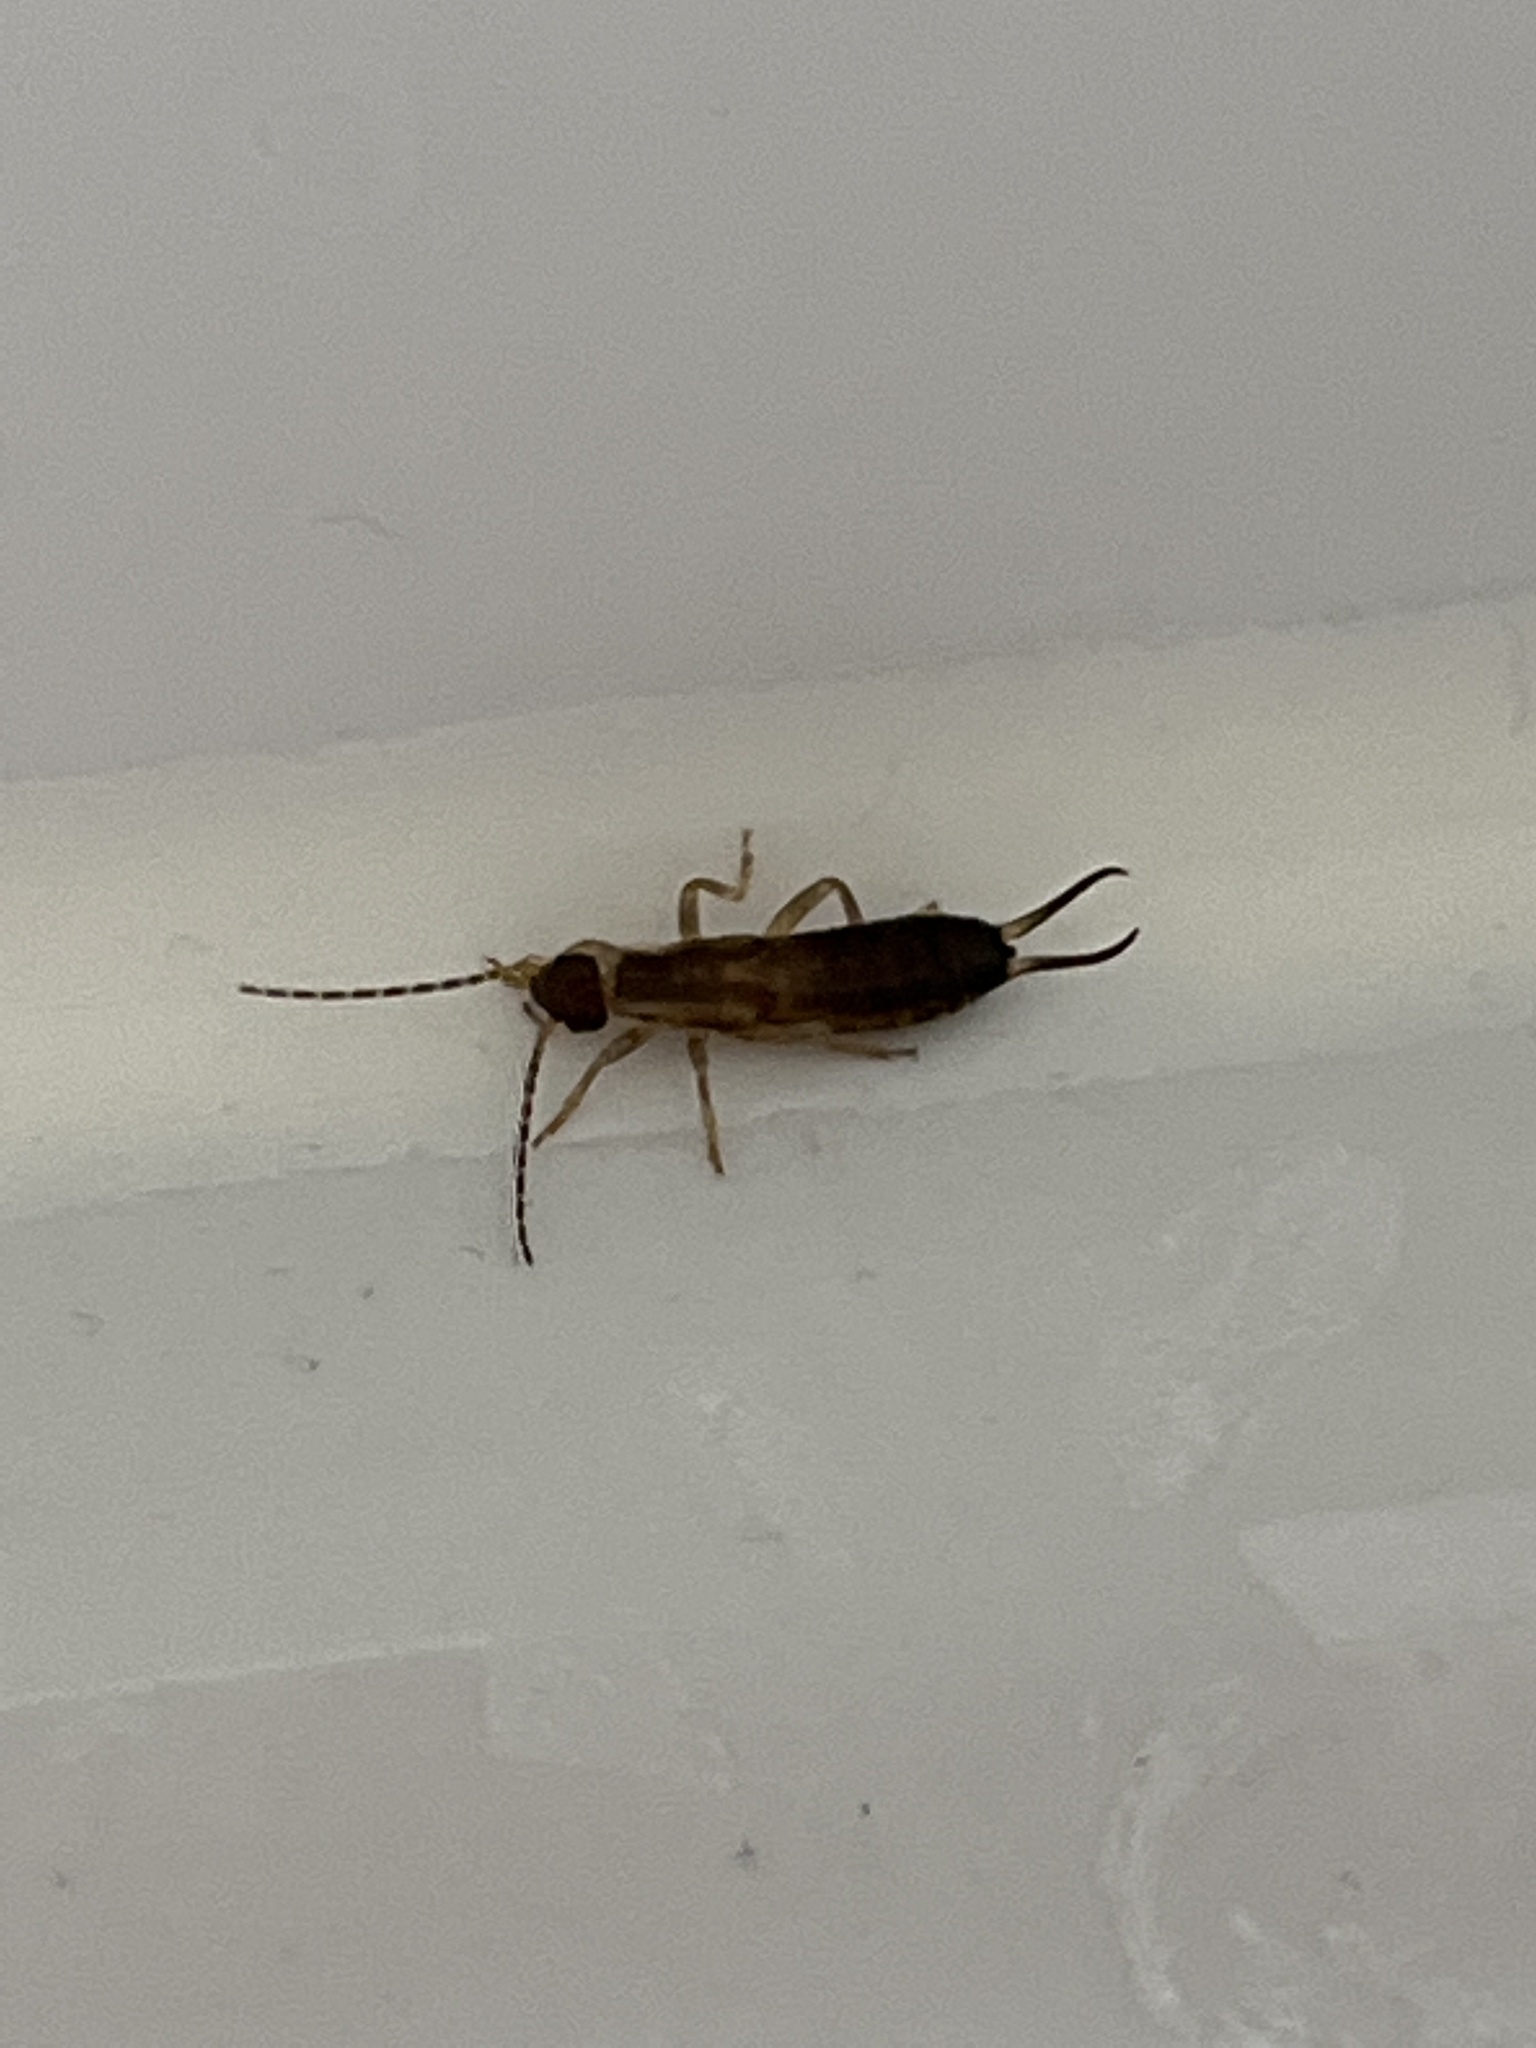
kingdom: Animalia
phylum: Arthropoda
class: Insecta
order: Dermaptera
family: Forficulidae
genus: Forficula
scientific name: Forficula
